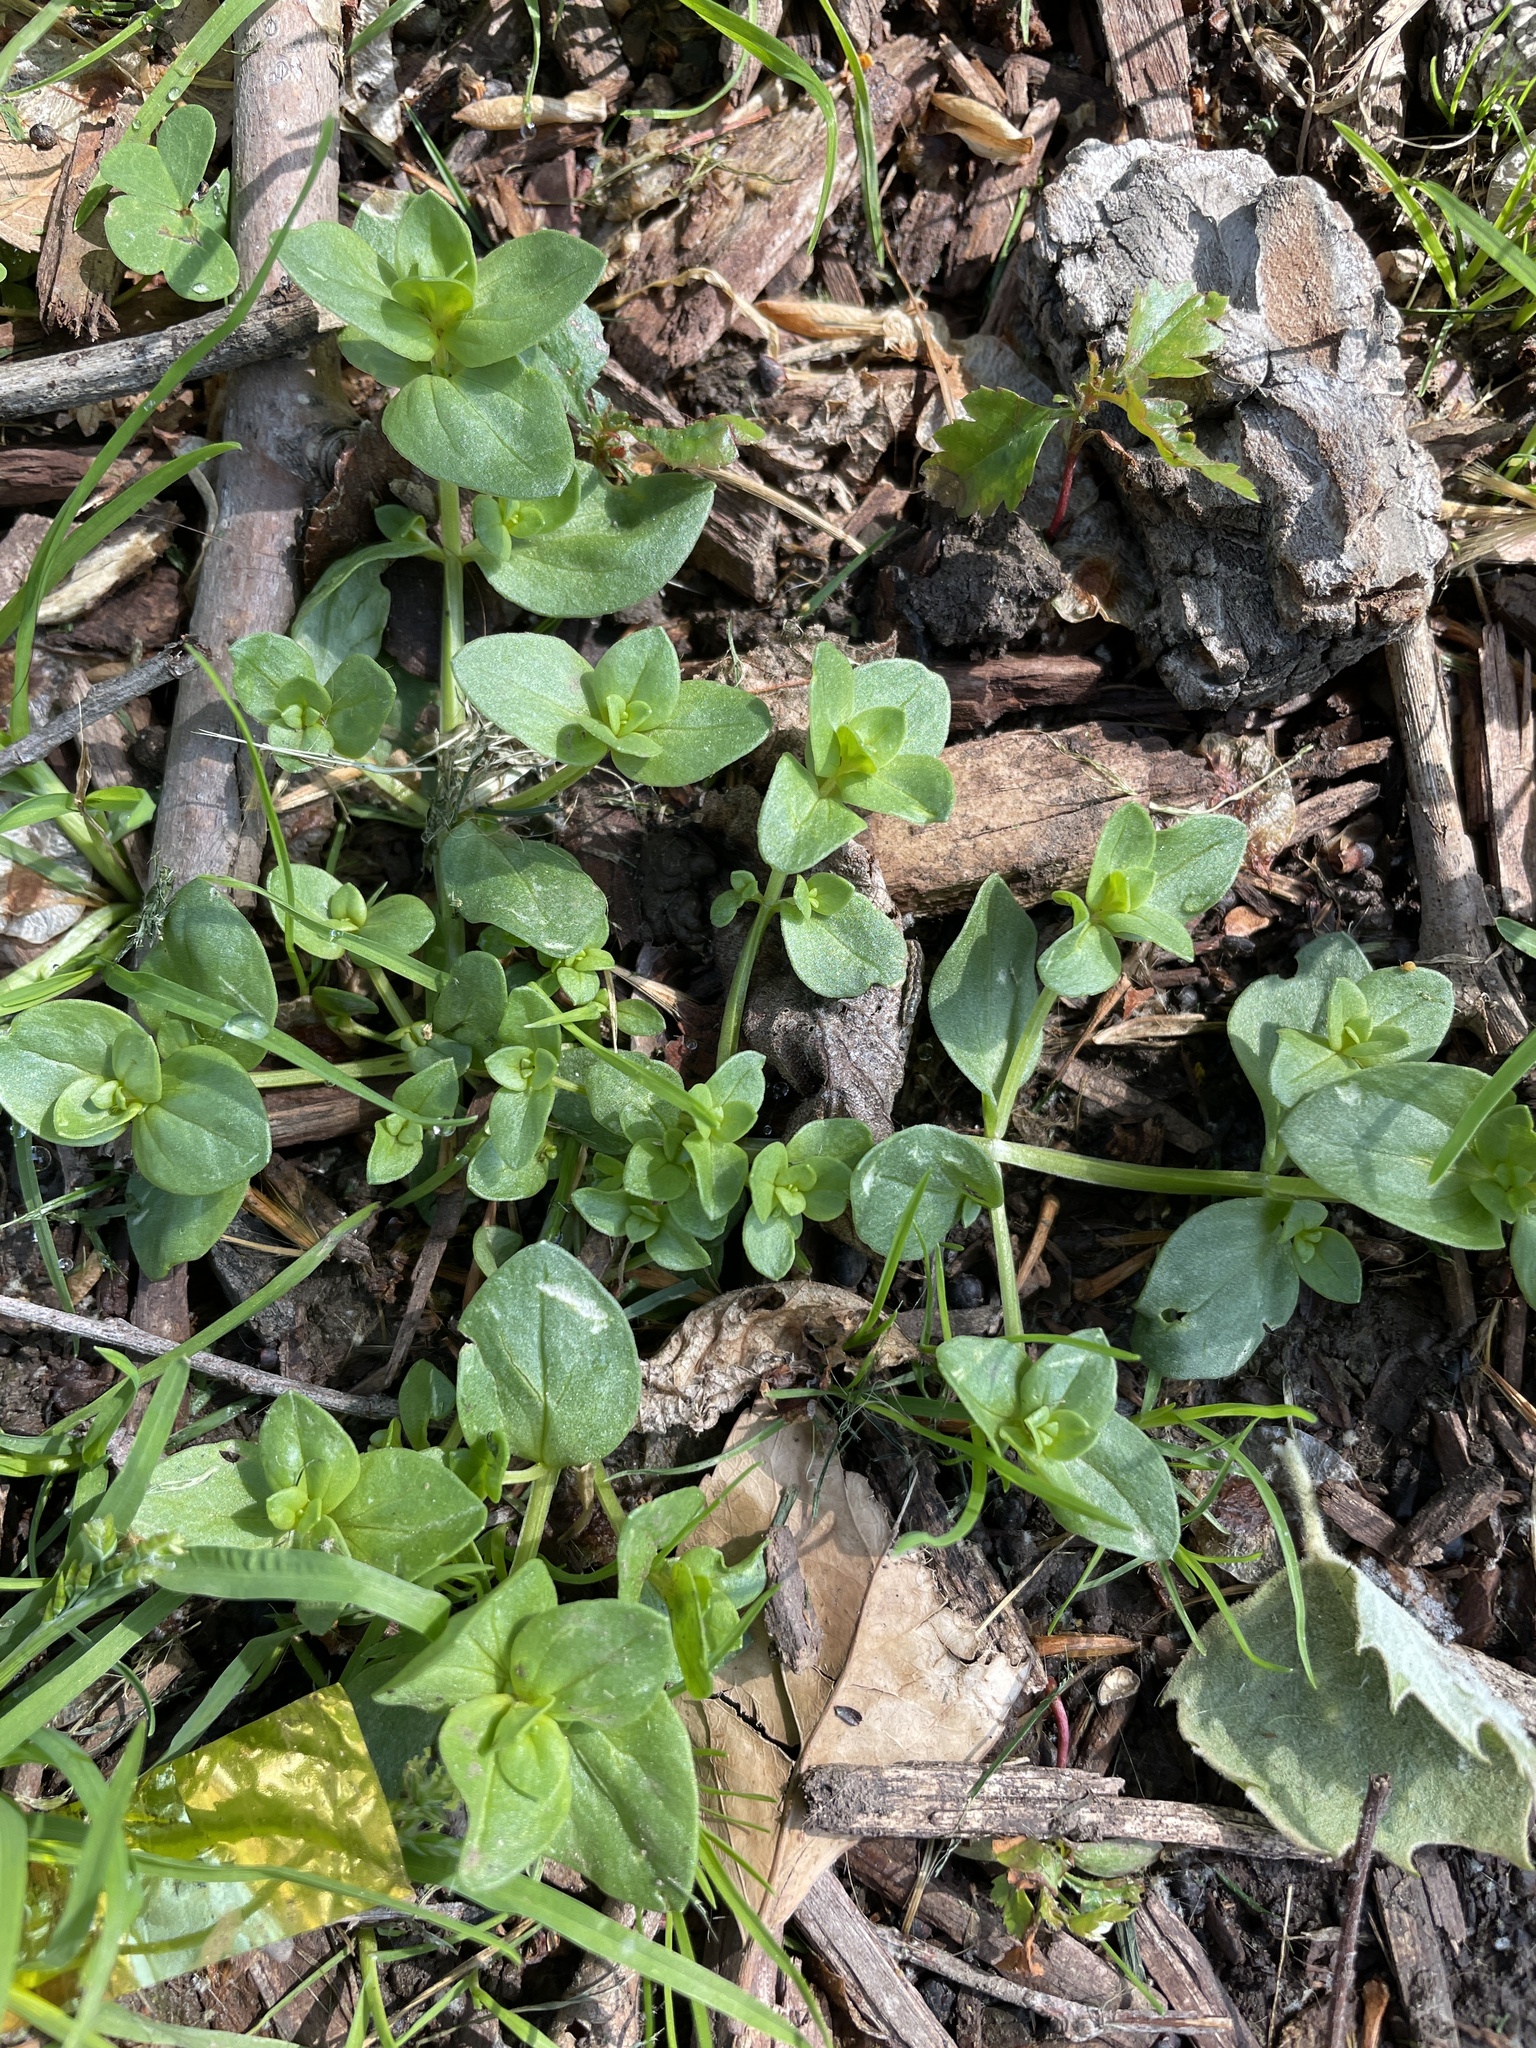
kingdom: Plantae
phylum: Tracheophyta
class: Magnoliopsida
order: Ericales
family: Primulaceae
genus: Lysimachia
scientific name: Lysimachia arvensis
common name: Scarlet pimpernel
